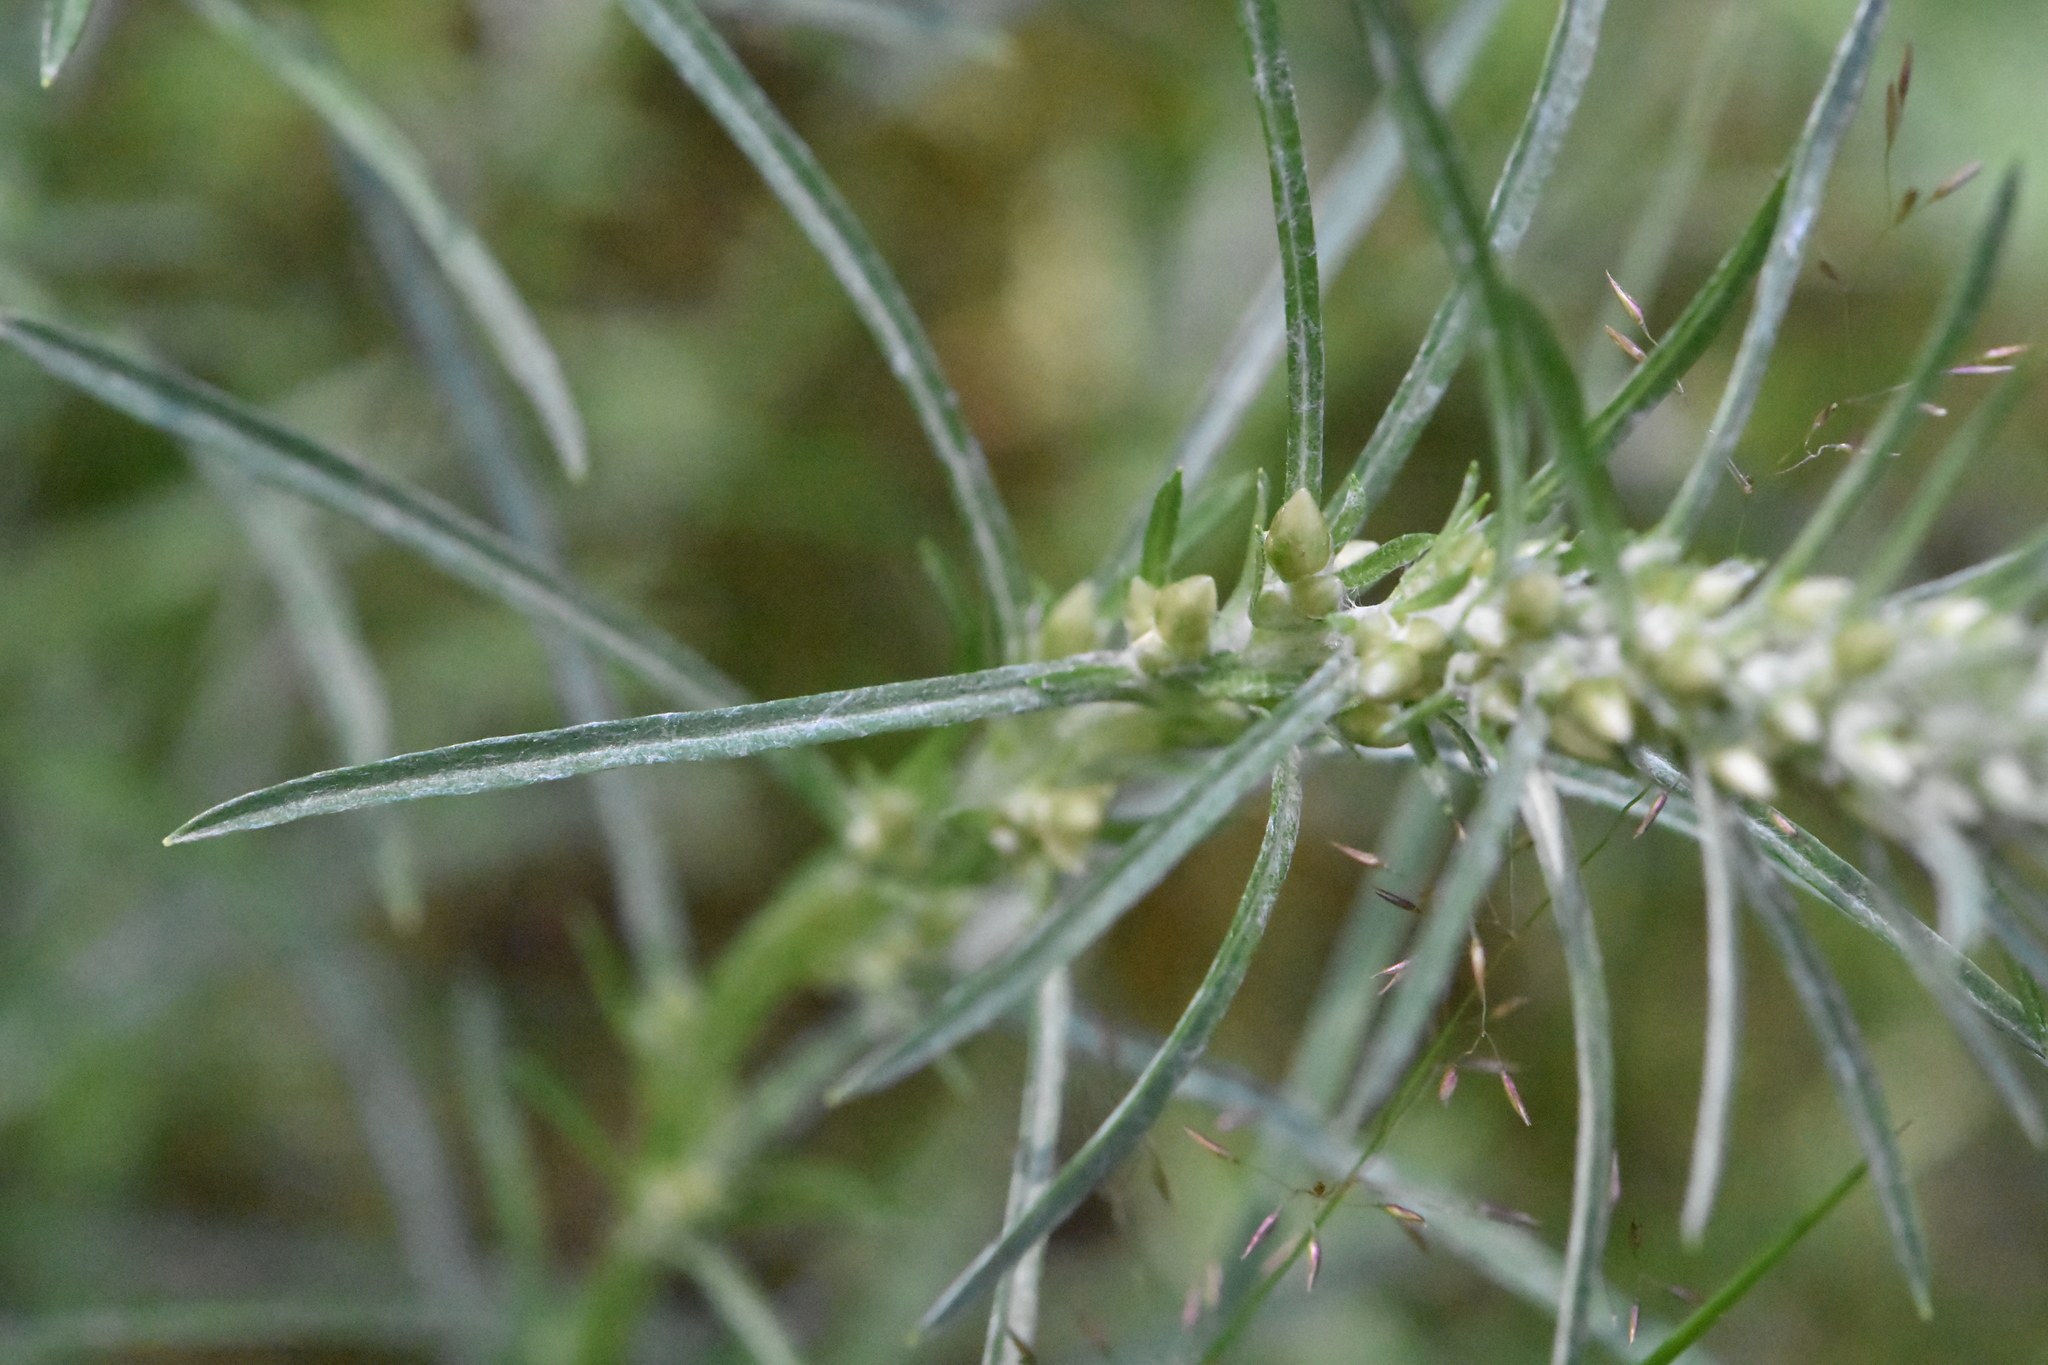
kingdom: Plantae
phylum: Tracheophyta
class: Magnoliopsida
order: Asterales
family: Asteraceae
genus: Omalotheca
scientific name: Omalotheca sylvatica
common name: Heath cudweed
